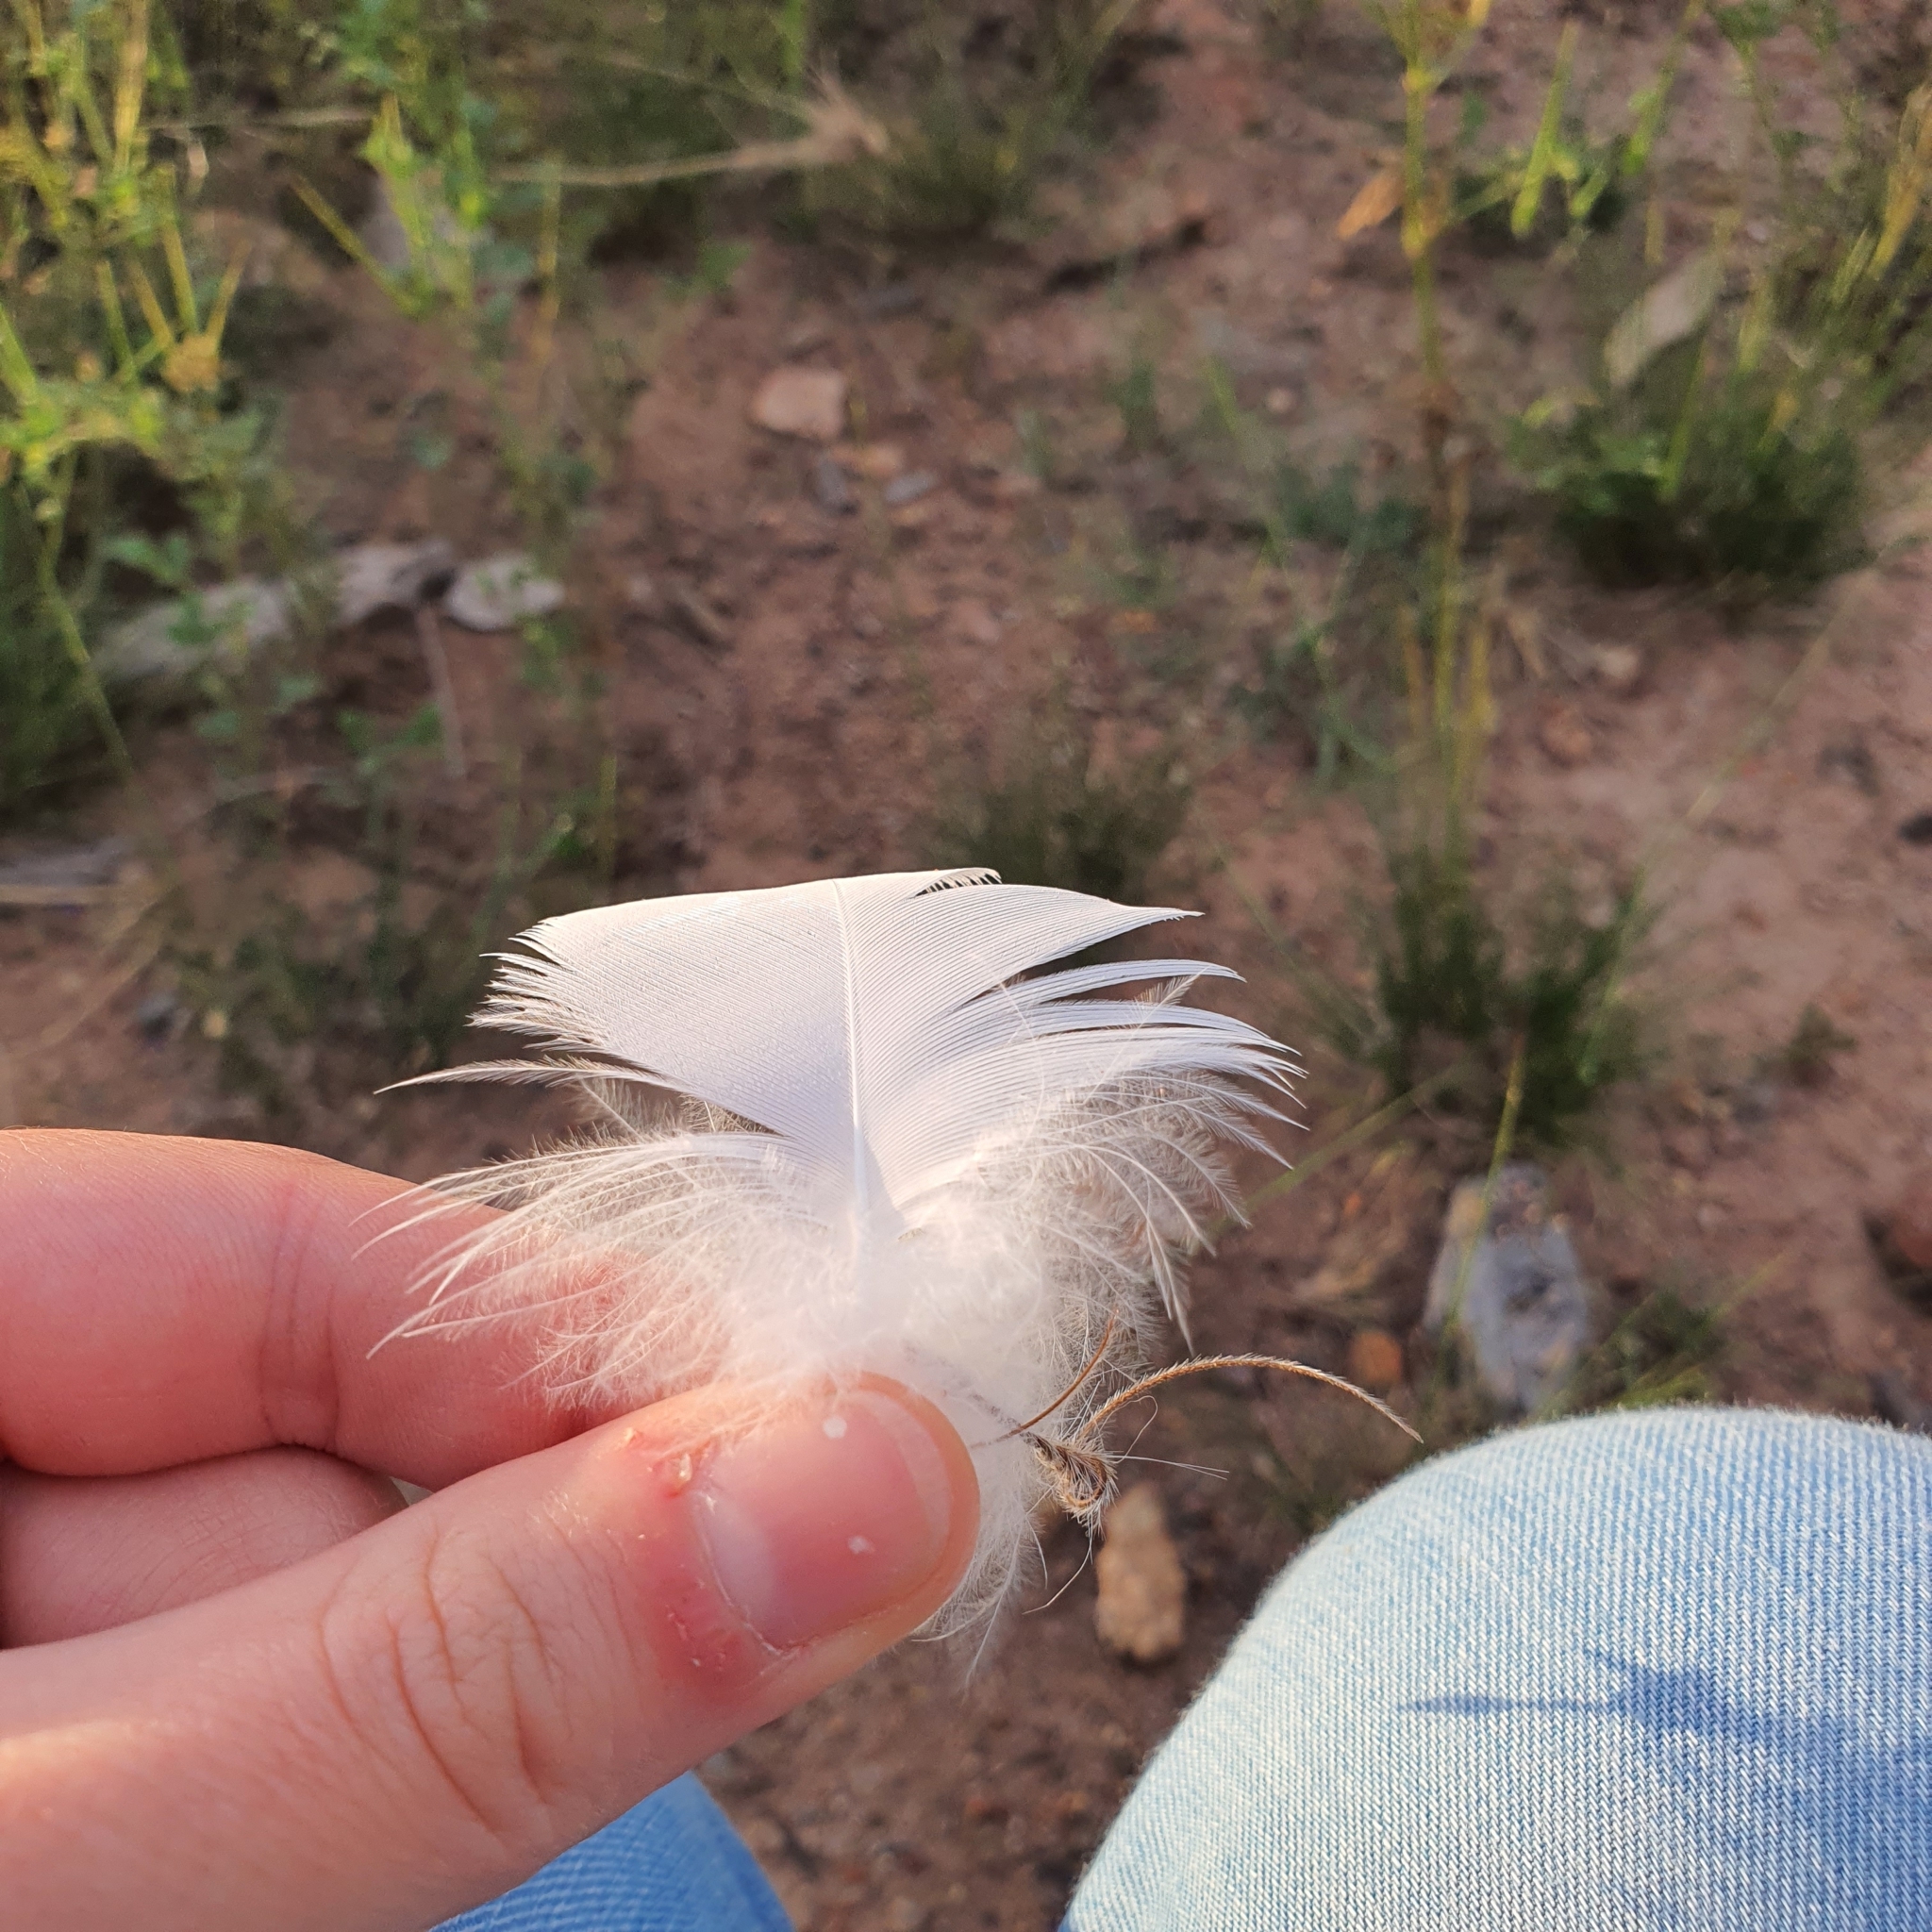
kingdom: Animalia
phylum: Chordata
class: Aves
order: Psittaciformes
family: Psittacidae
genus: Cacatua
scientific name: Cacatua galerita
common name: Sulphur-crested cockatoo
